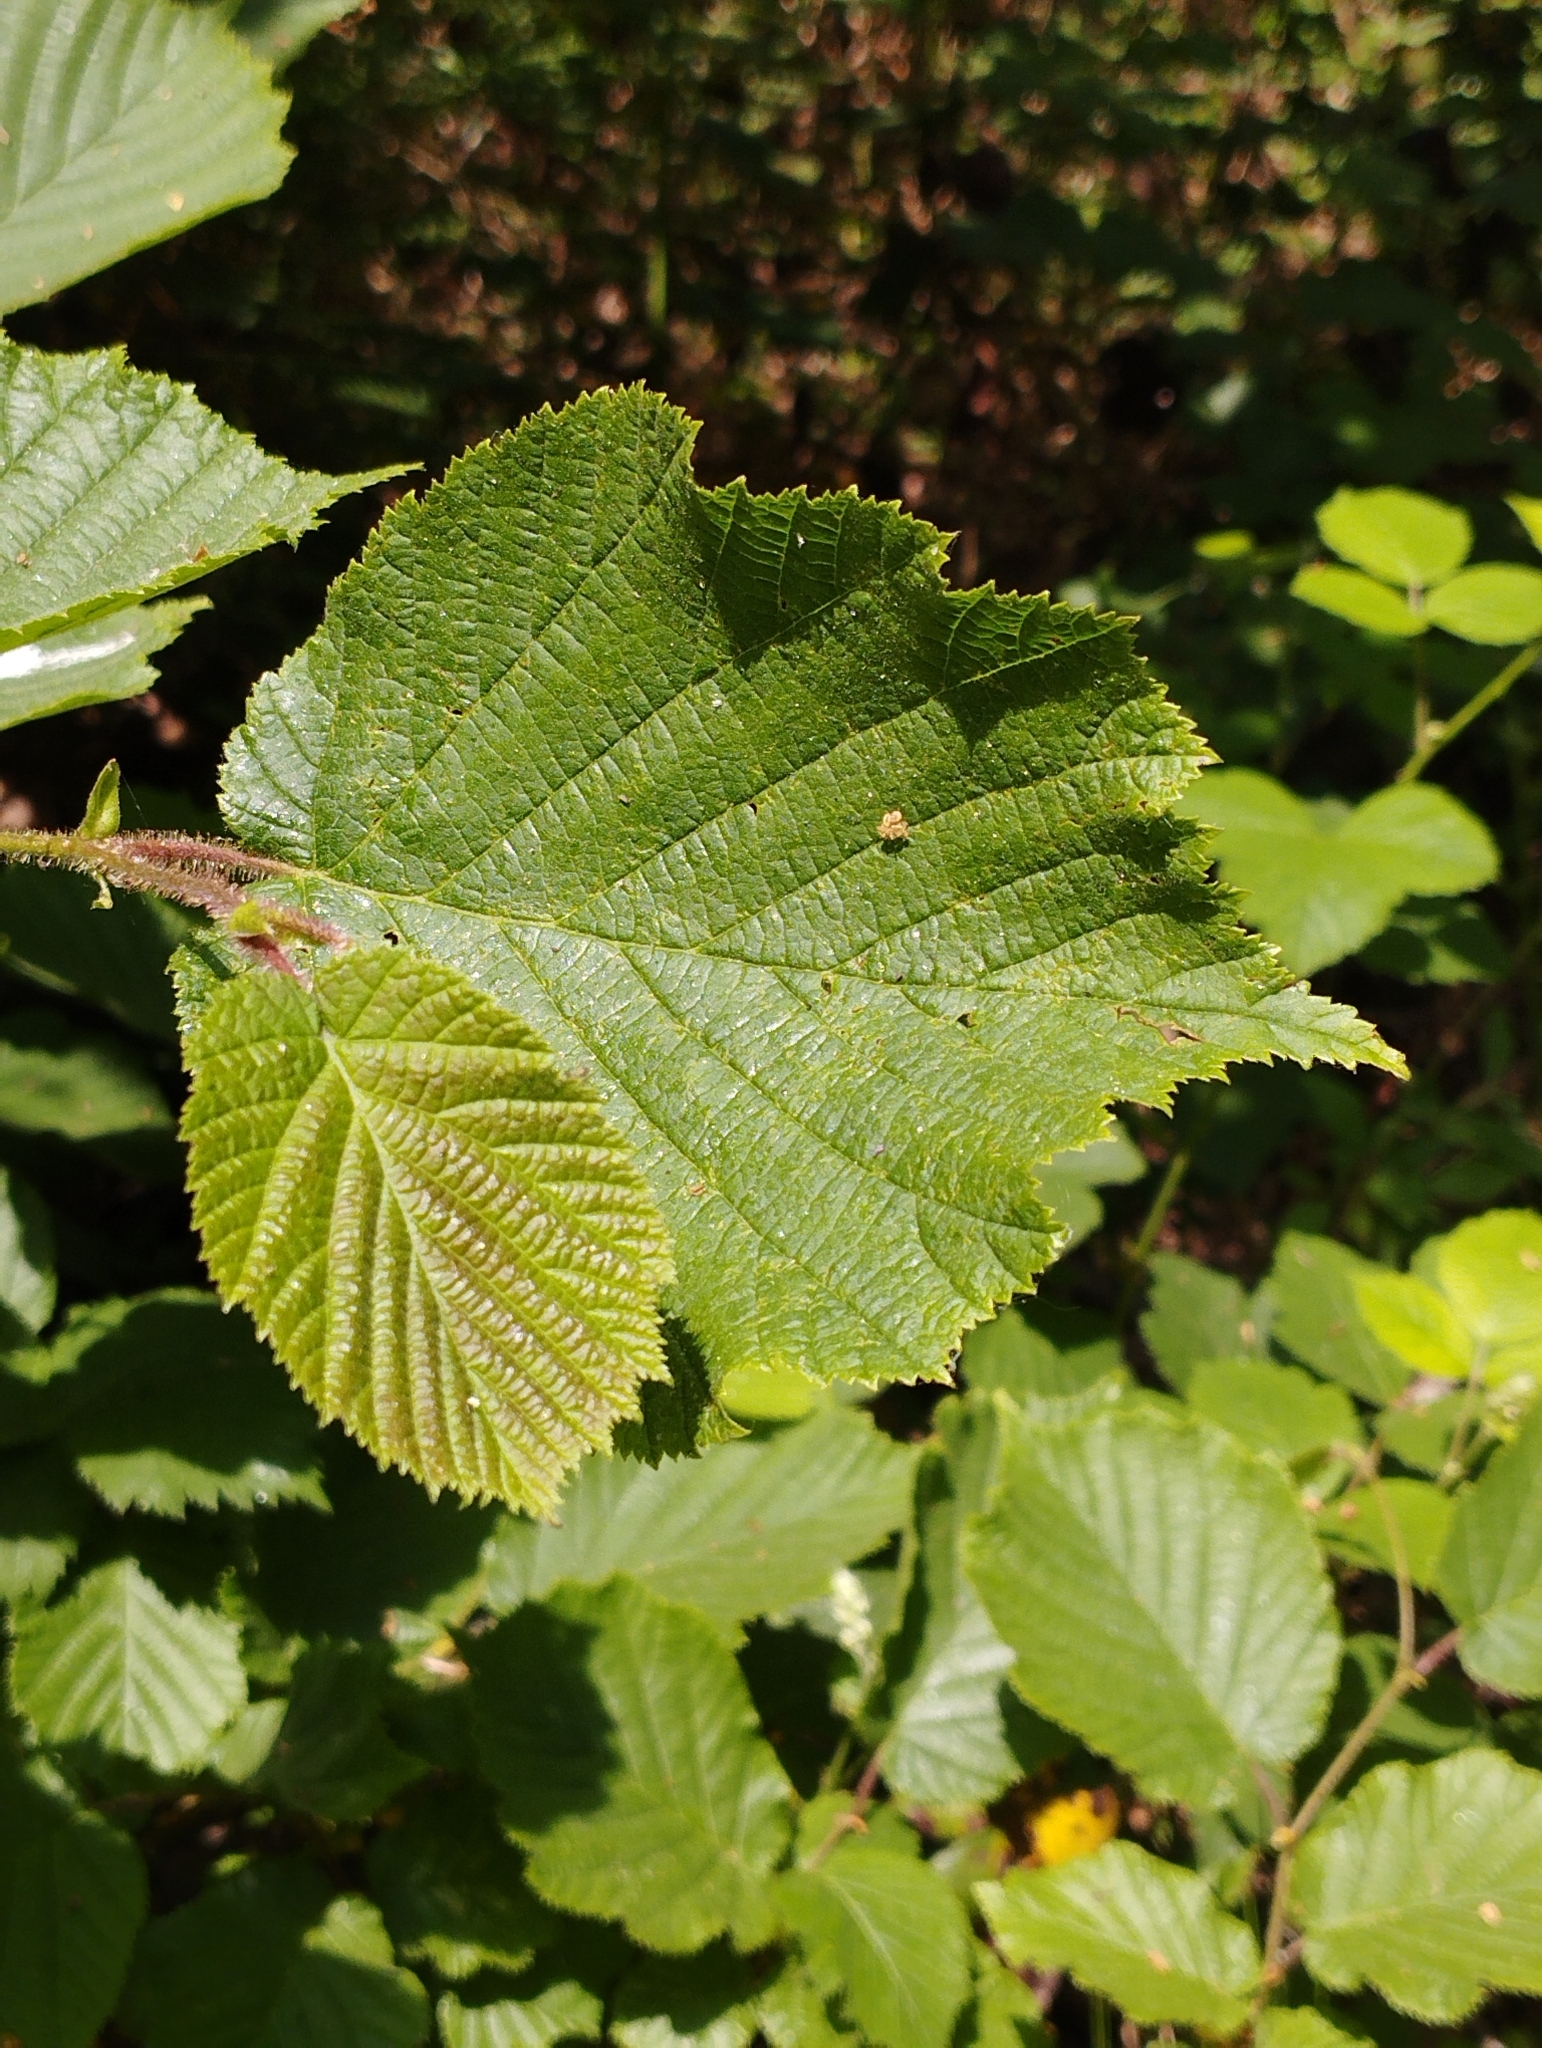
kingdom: Plantae
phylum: Tracheophyta
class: Magnoliopsida
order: Fagales
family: Betulaceae
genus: Corylus
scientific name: Corylus avellana
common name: European hazel
